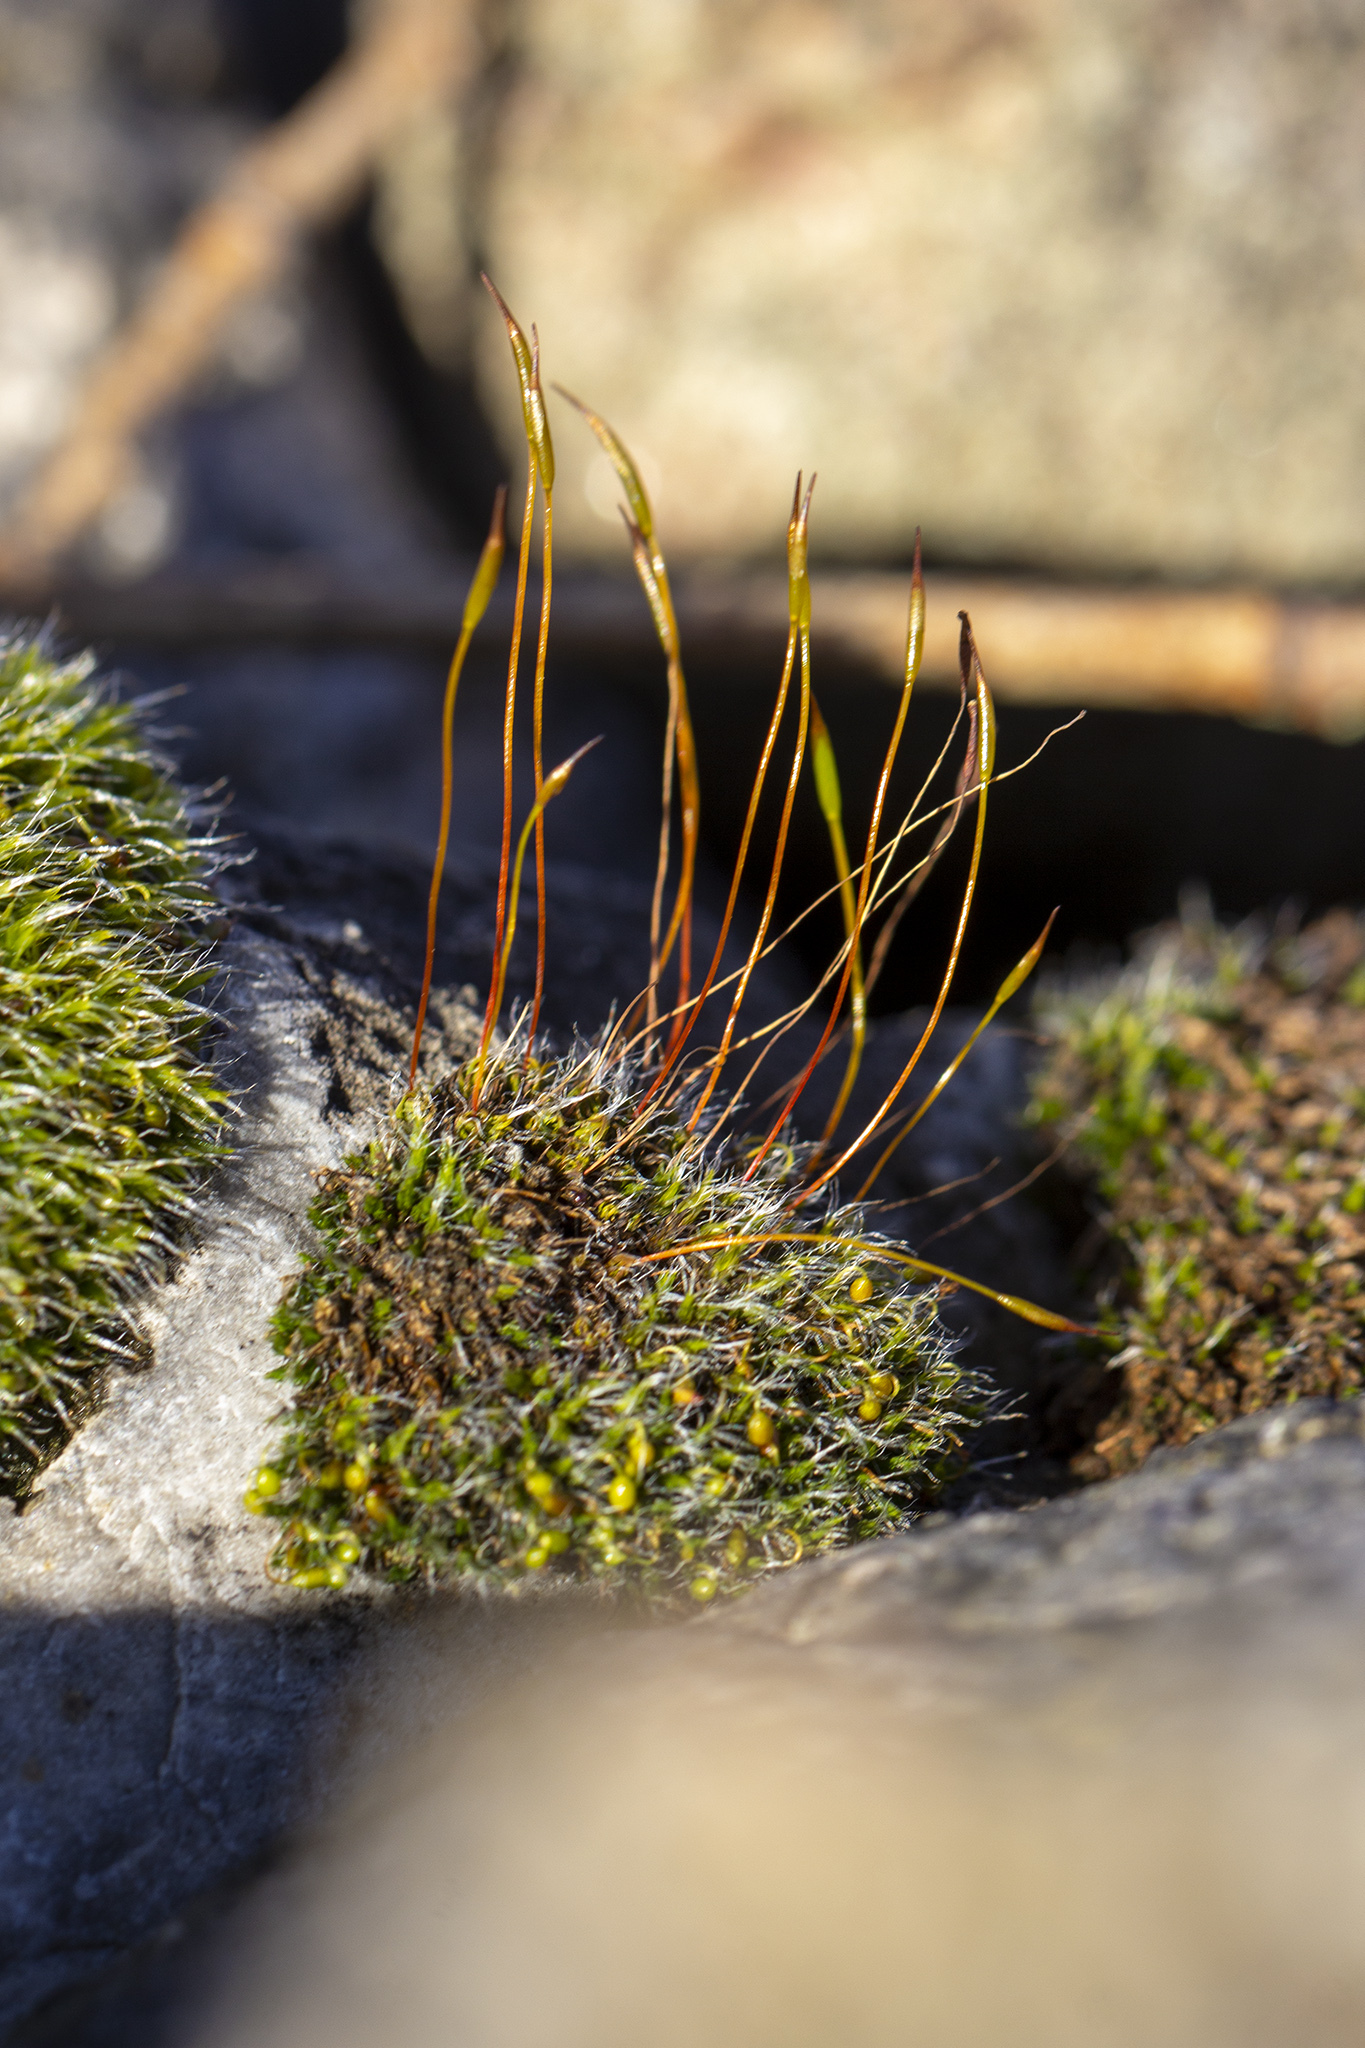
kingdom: Plantae
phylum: Bryophyta
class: Bryopsida
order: Pottiales
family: Pottiaceae
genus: Tortula
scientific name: Tortula muralis
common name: Wall screw-moss
